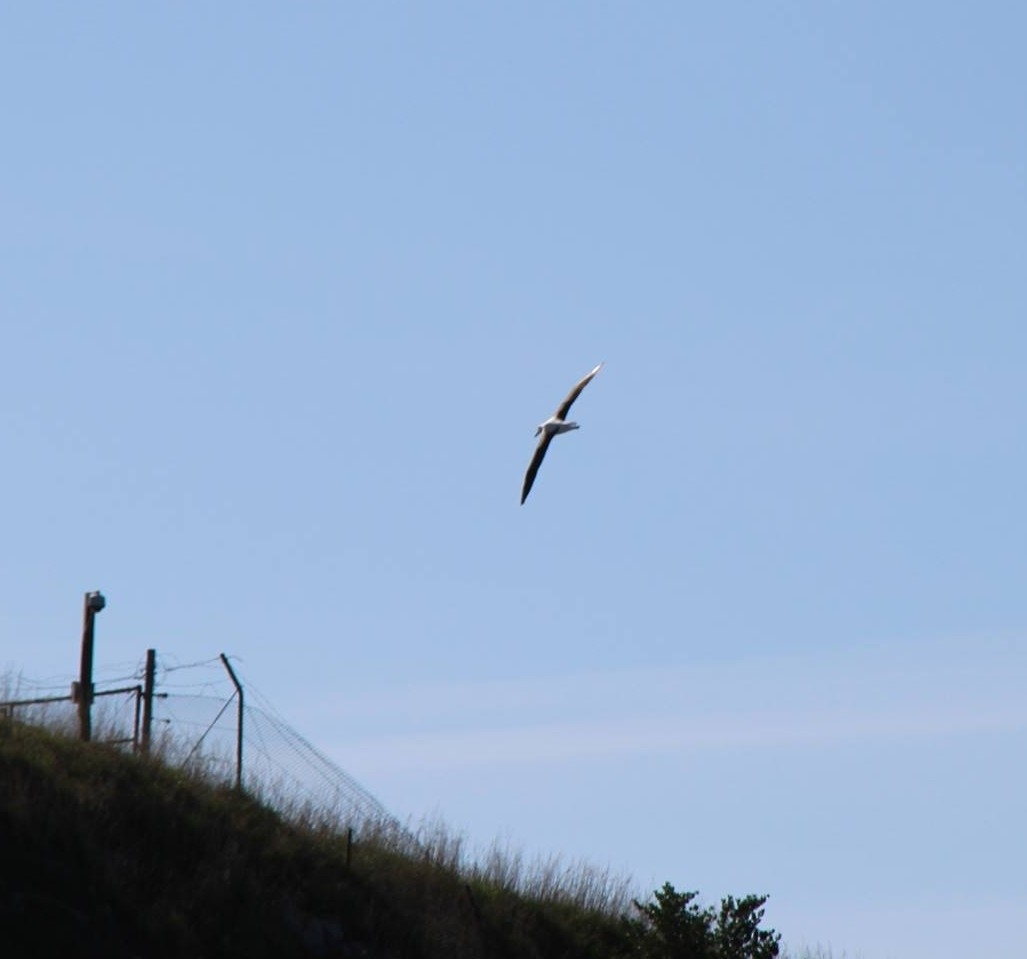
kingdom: Animalia
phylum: Chordata
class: Aves
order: Procellariiformes
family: Diomedeidae
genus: Diomedea
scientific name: Diomedea sanfordi
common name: Northern royal albatross
